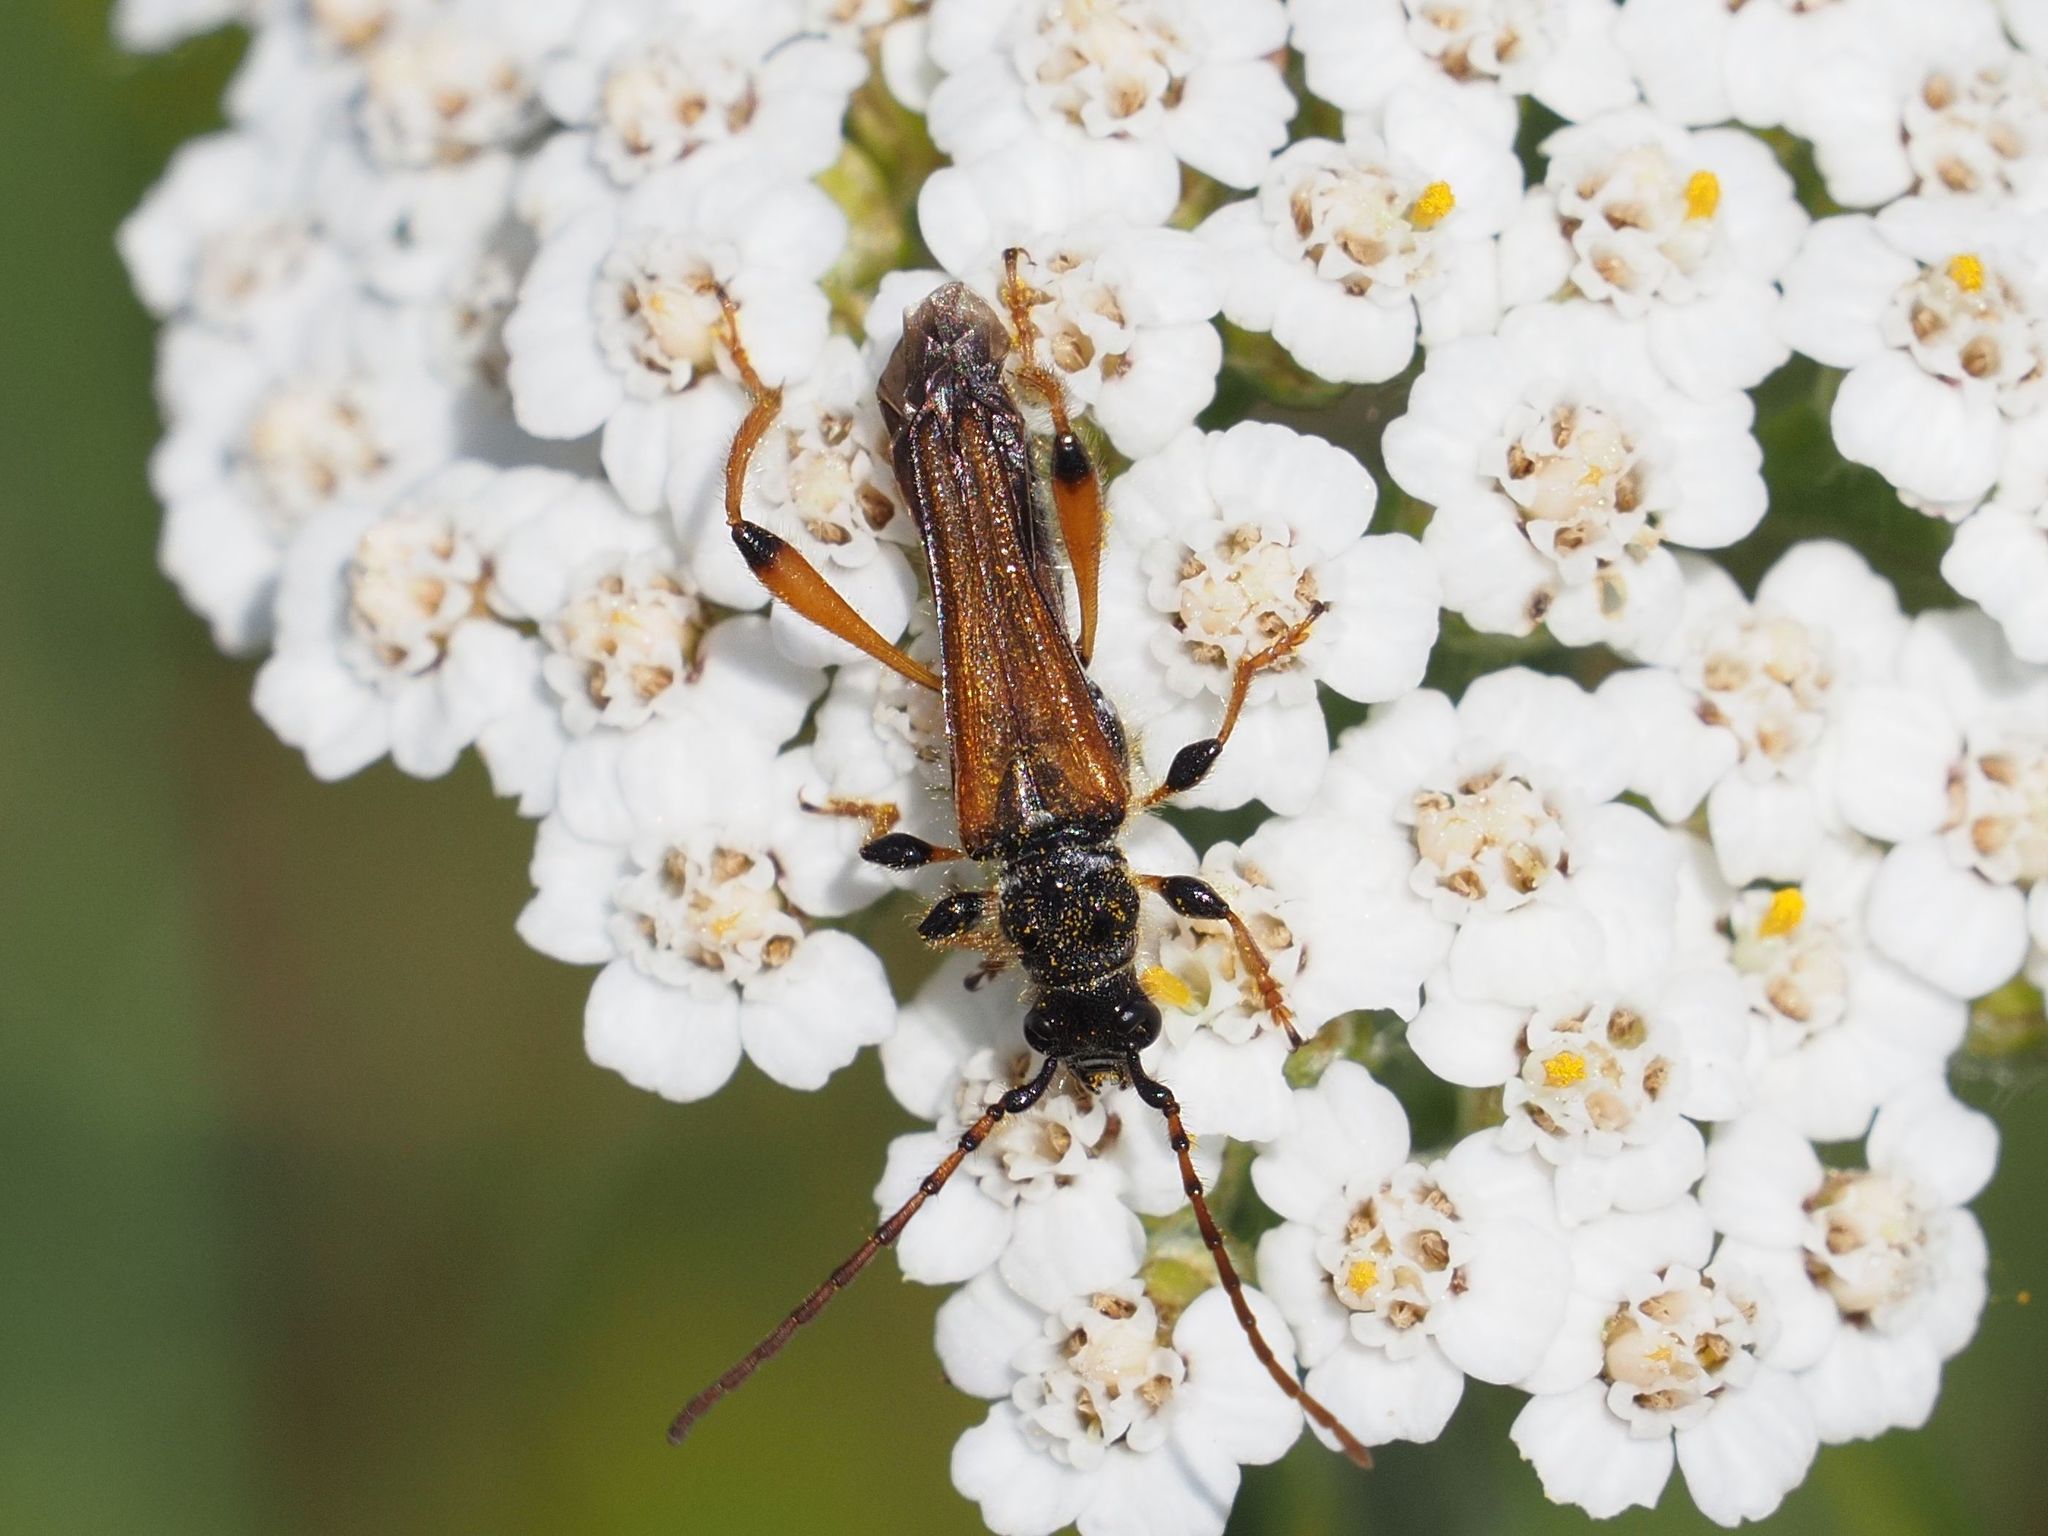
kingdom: Animalia
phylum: Arthropoda
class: Insecta
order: Coleoptera
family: Cerambycidae
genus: Stenopterus
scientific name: Stenopterus rufus
